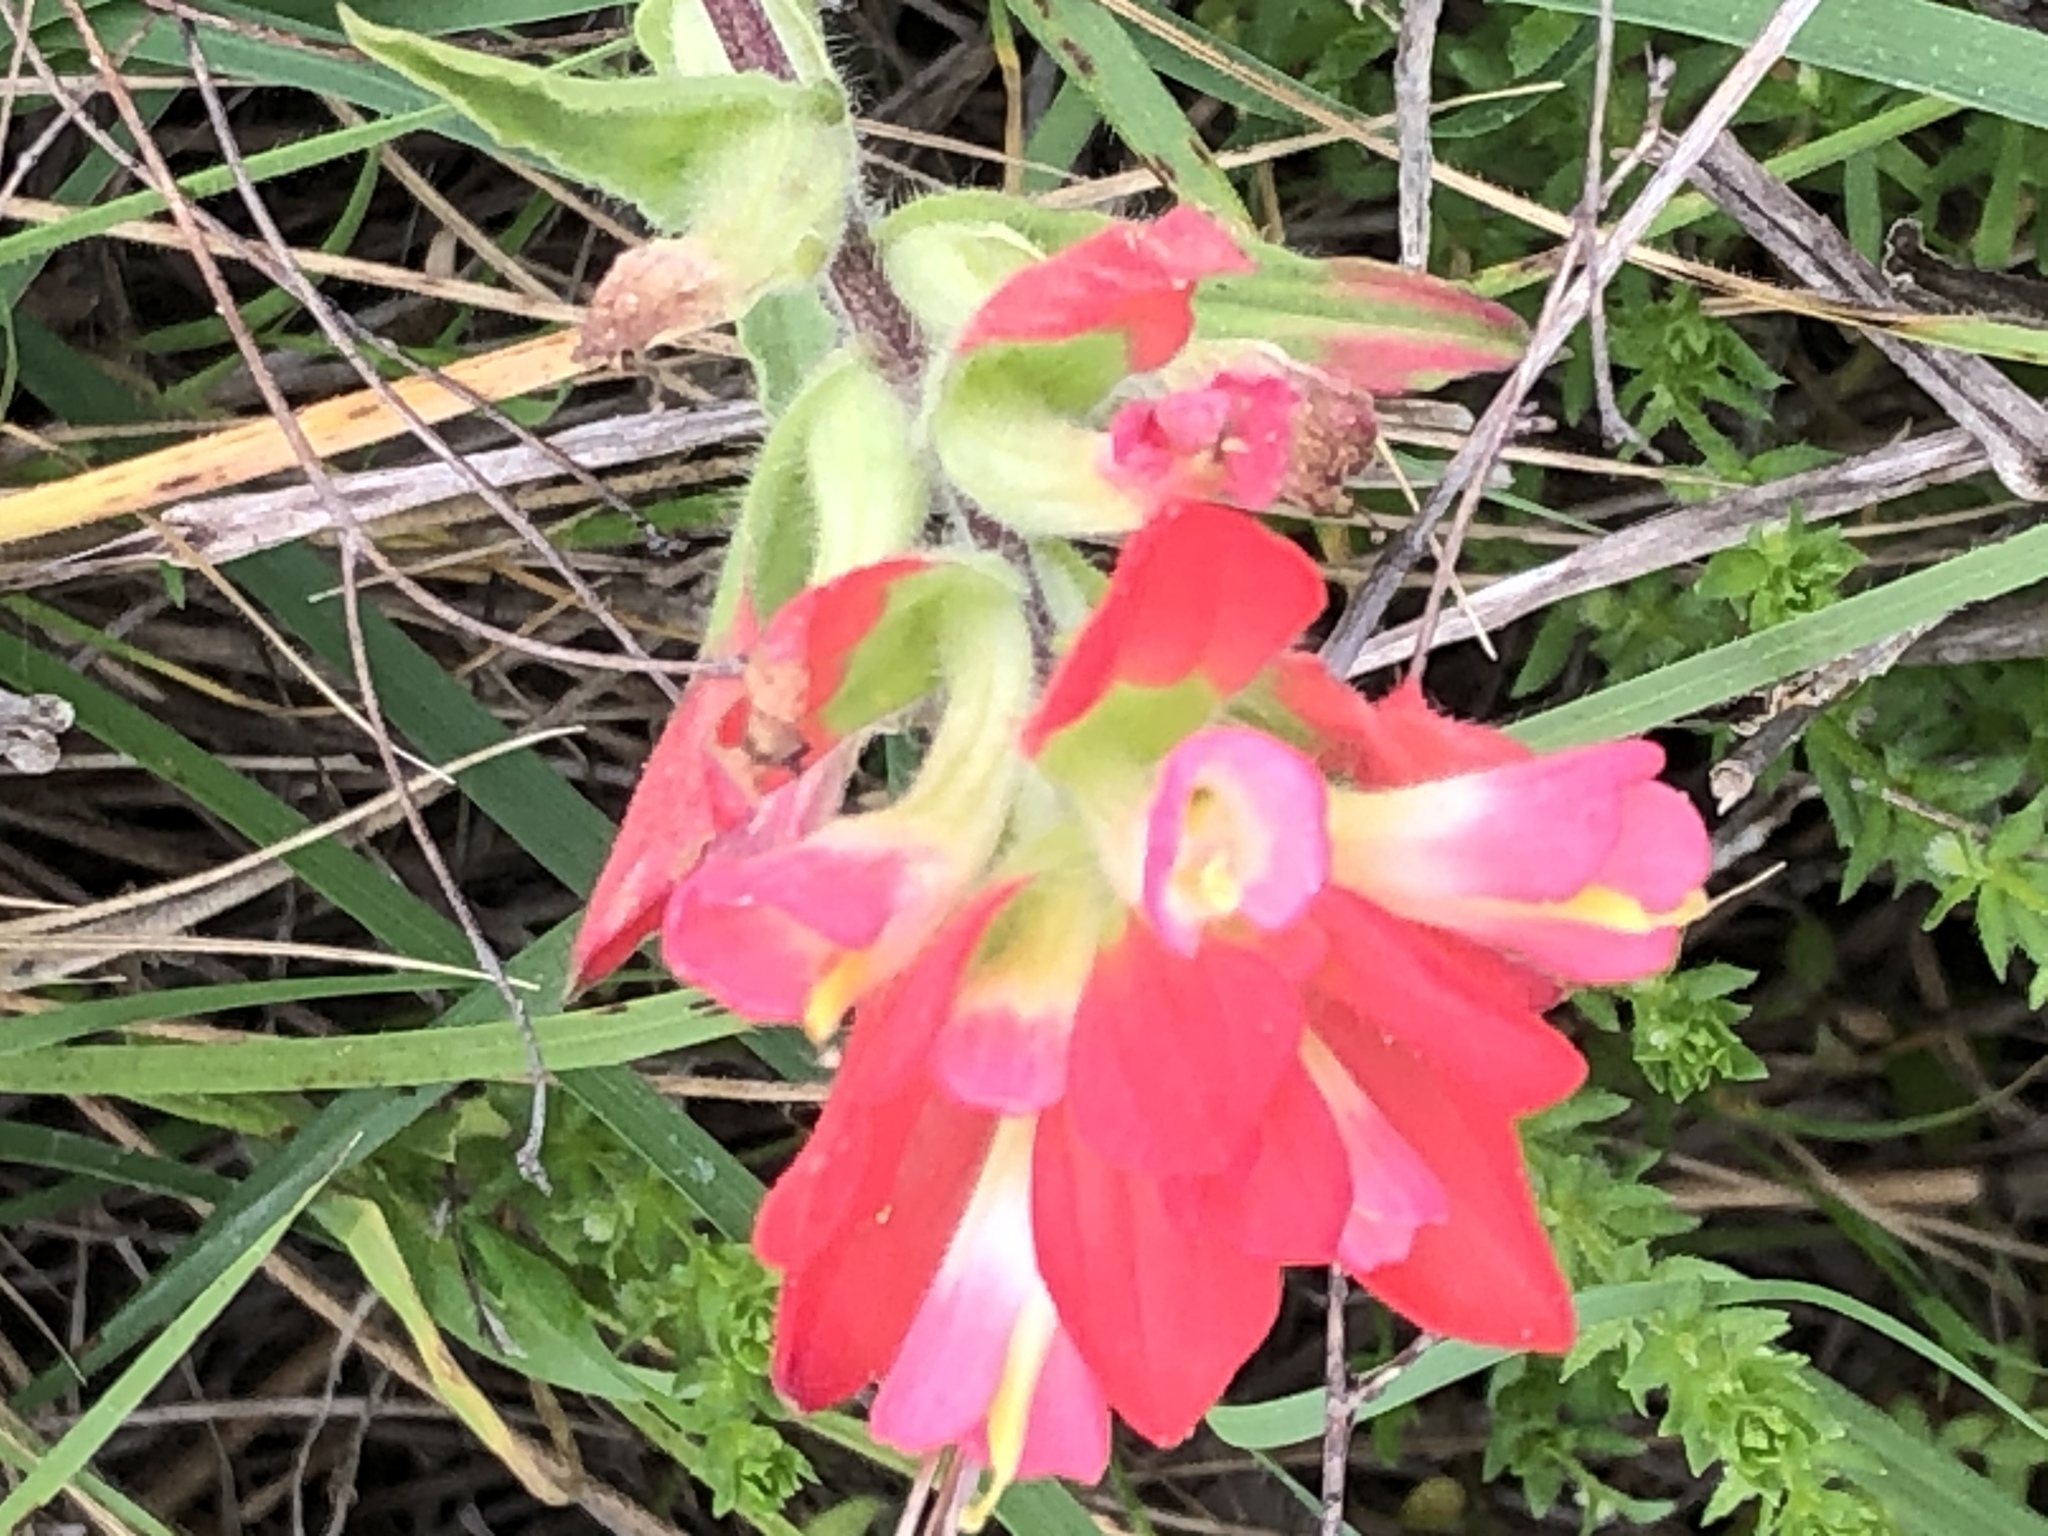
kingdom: Plantae
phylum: Tracheophyta
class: Magnoliopsida
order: Lamiales
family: Orobanchaceae
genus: Castilleja
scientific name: Castilleja indivisa
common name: Texas paintbrush
